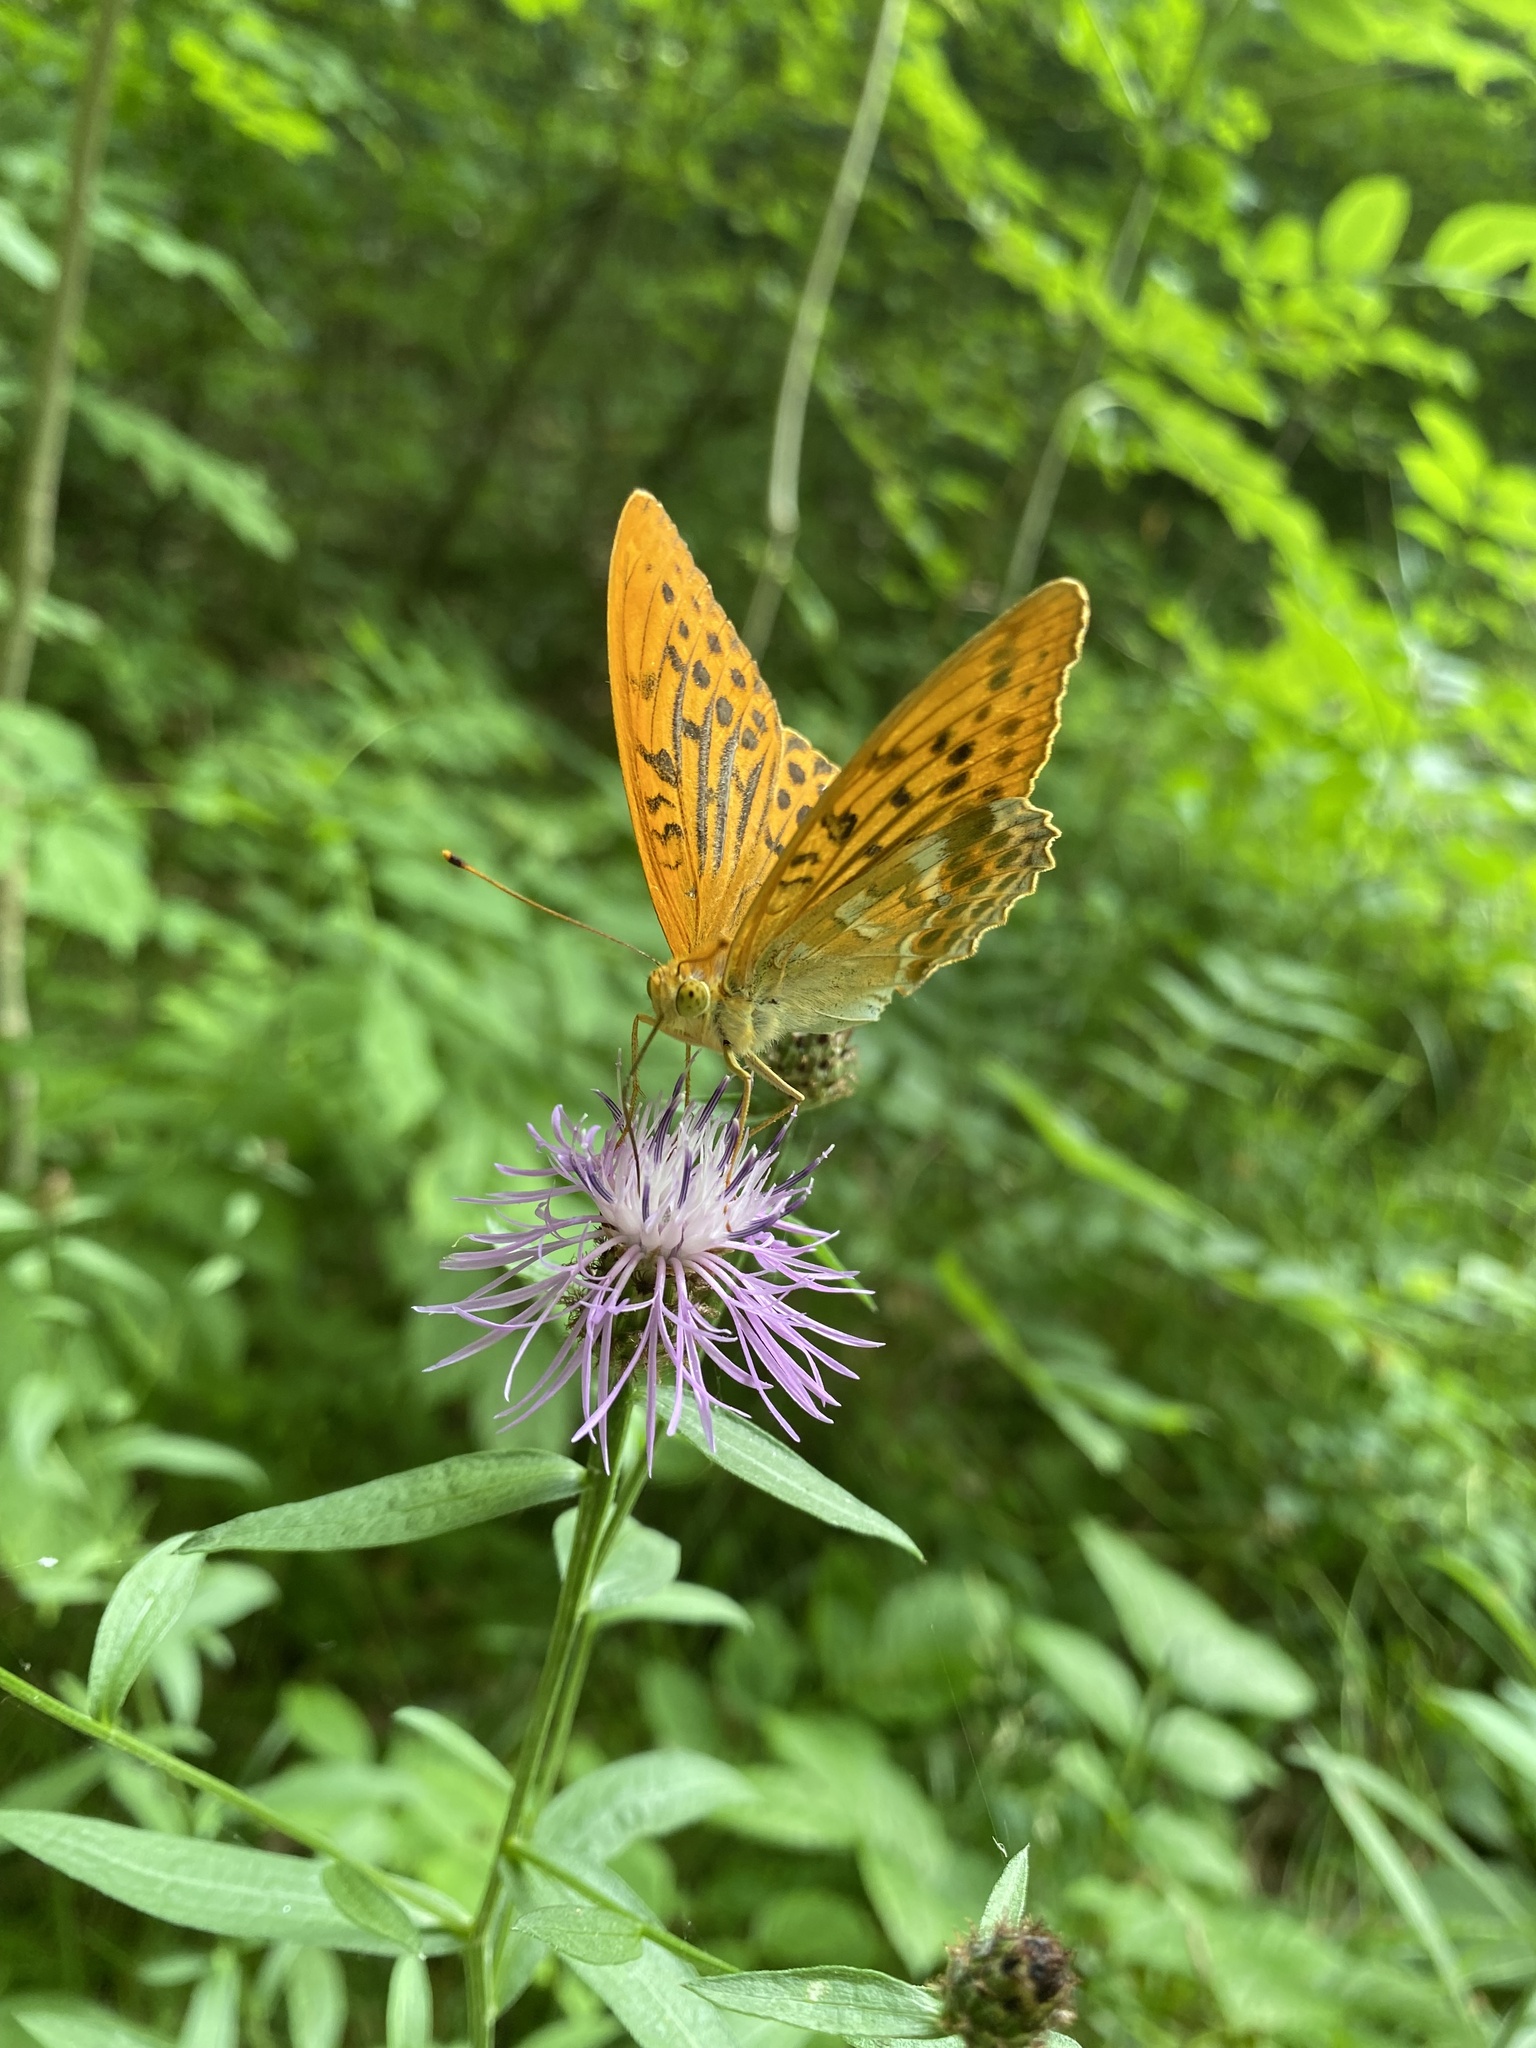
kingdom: Animalia
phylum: Arthropoda
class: Insecta
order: Lepidoptera
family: Nymphalidae
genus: Argynnis
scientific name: Argynnis paphia
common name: Silver-washed fritillary
